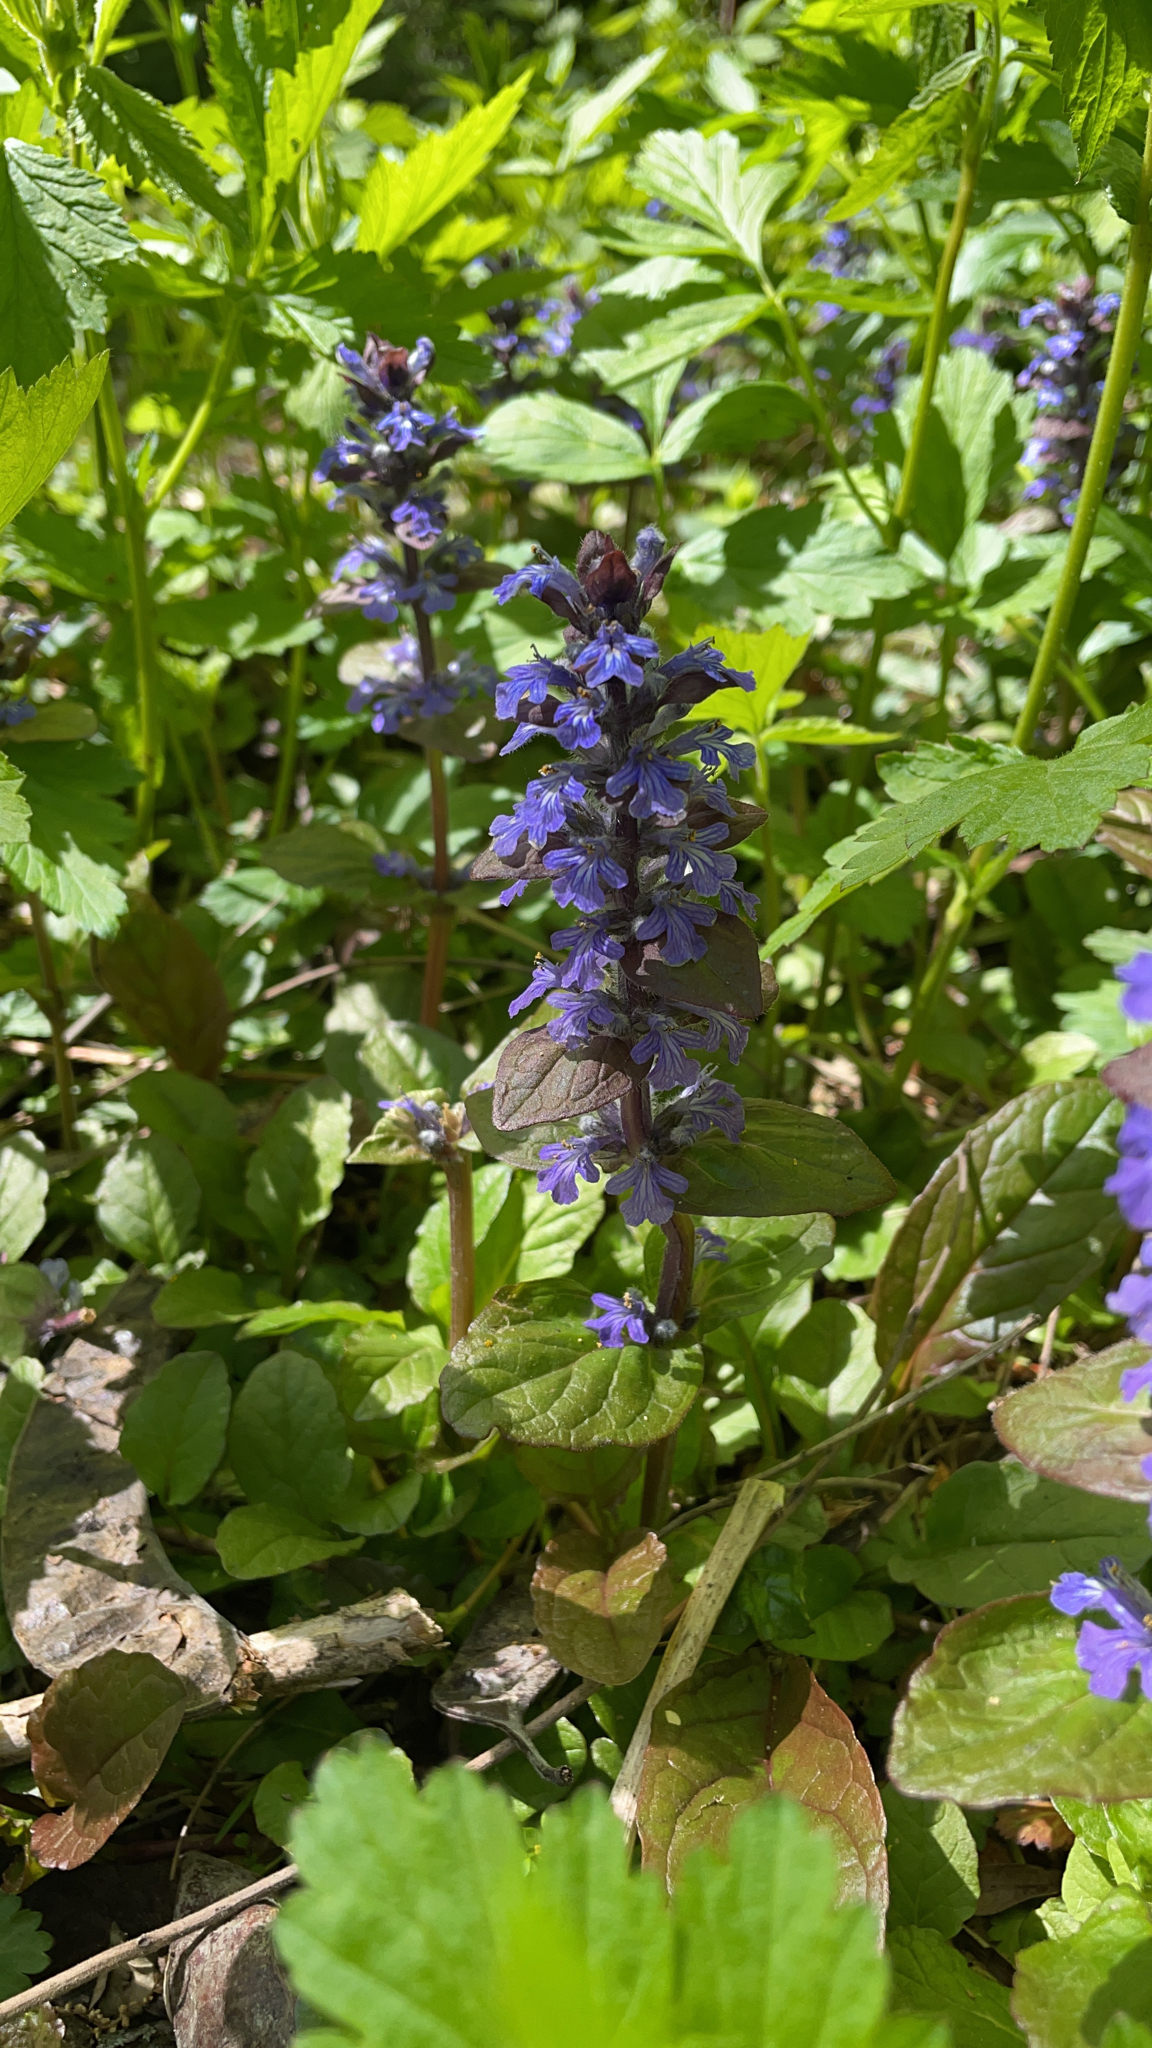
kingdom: Plantae
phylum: Tracheophyta
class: Magnoliopsida
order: Lamiales
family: Lamiaceae
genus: Ajuga
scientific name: Ajuga reptans
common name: Bugle
